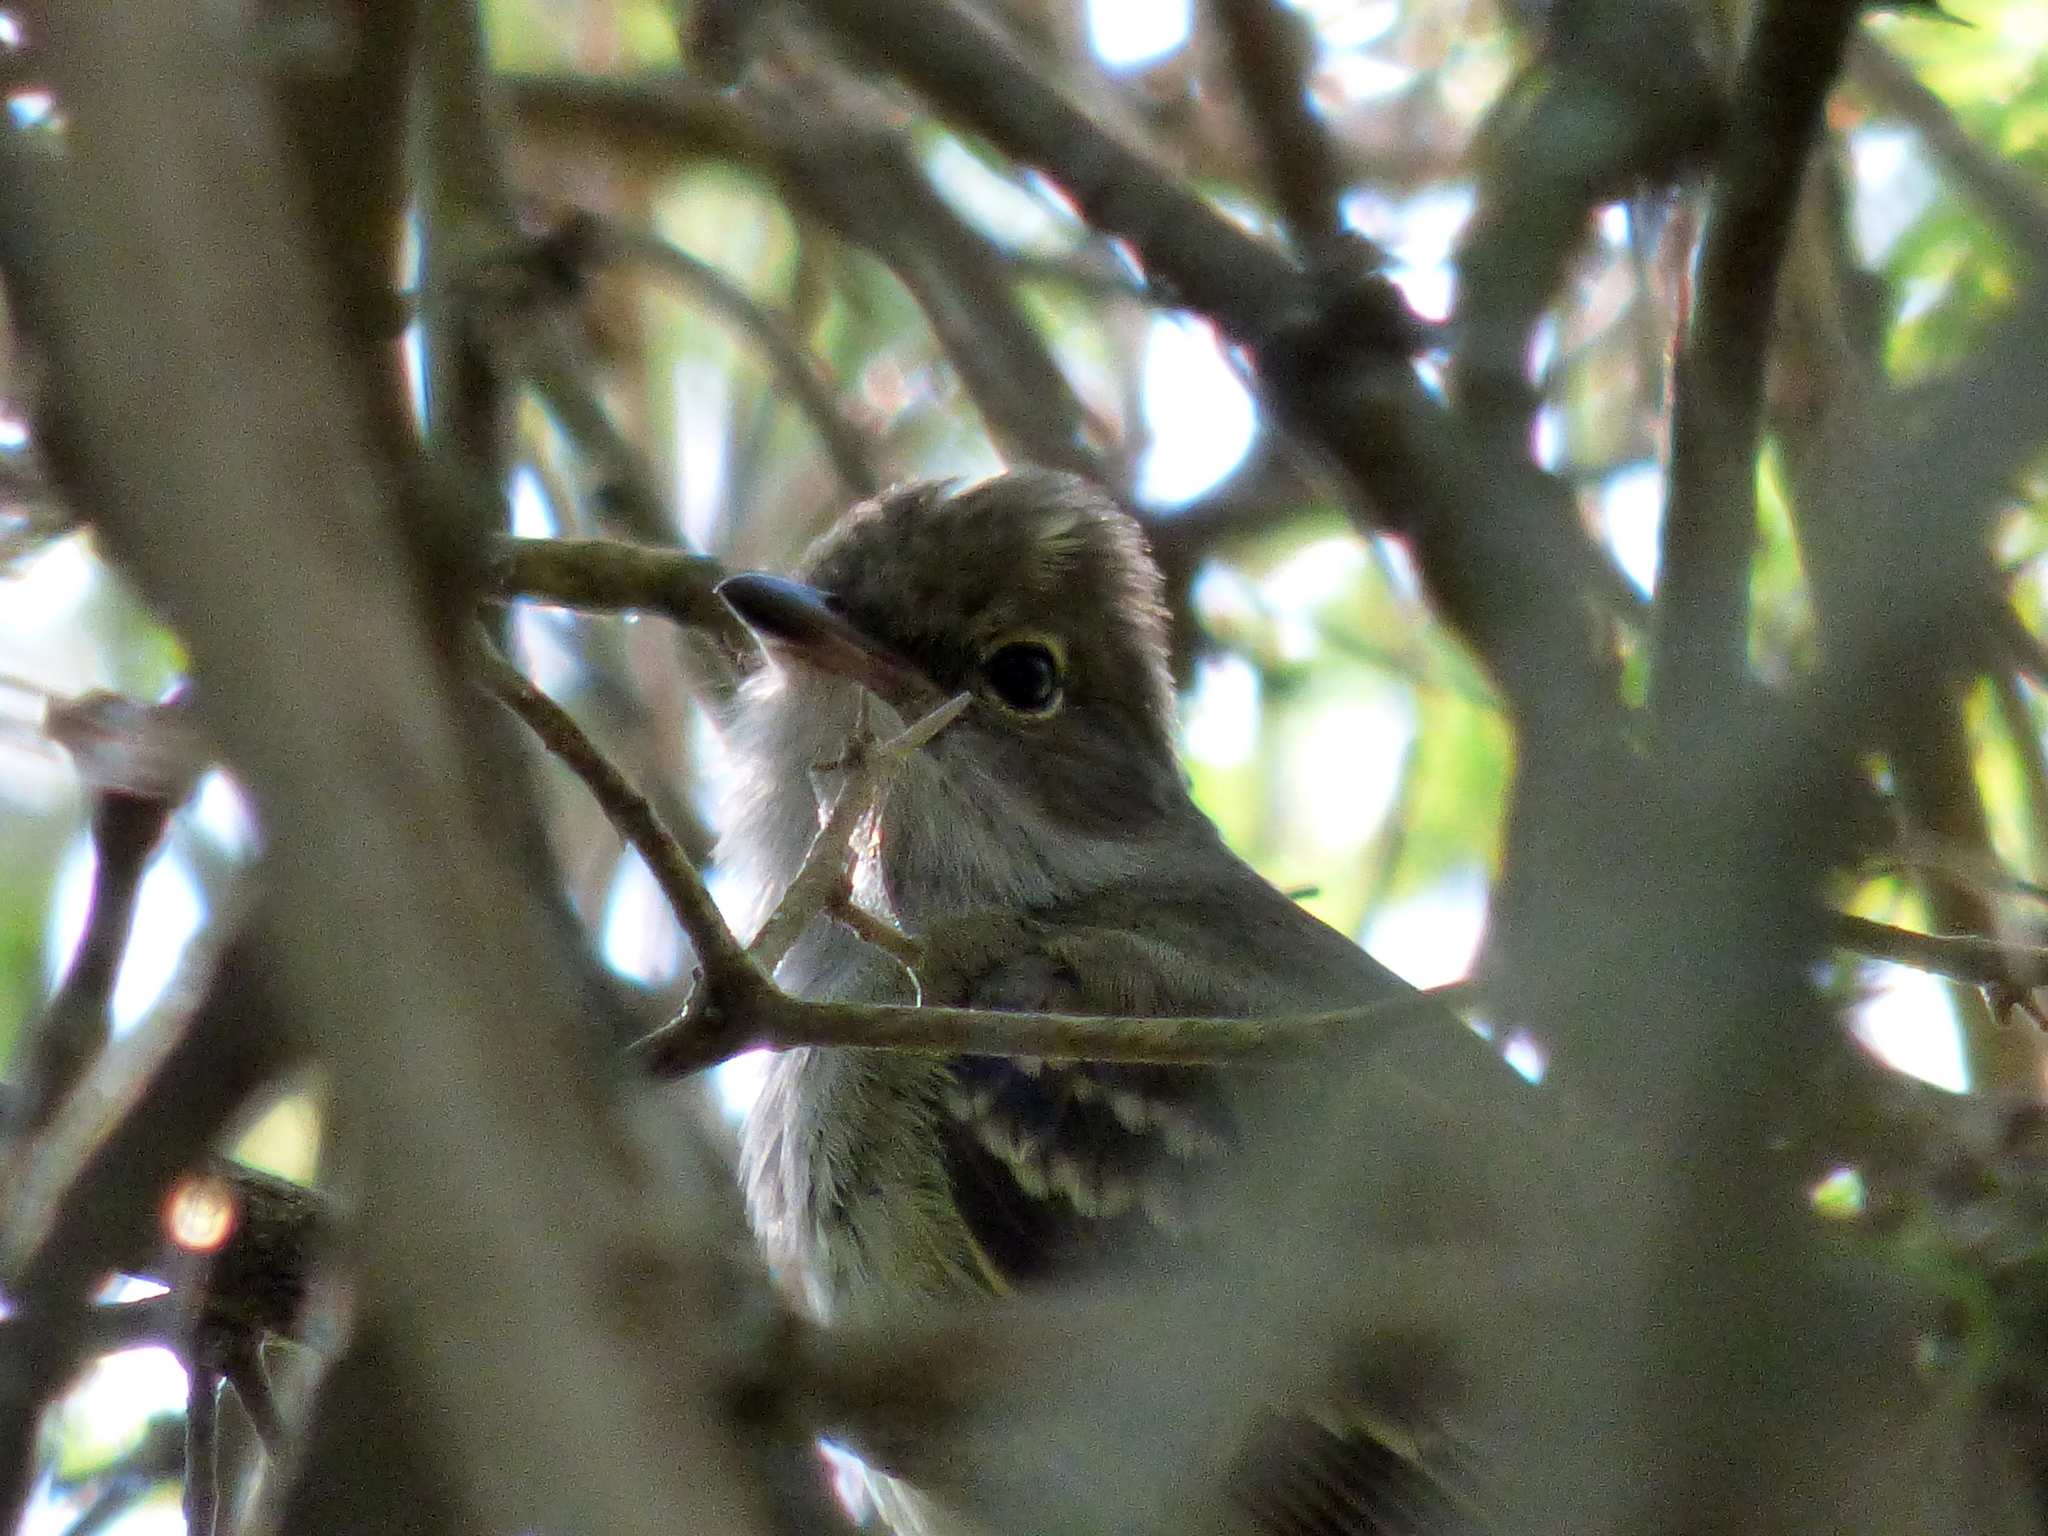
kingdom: Animalia
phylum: Chordata
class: Aves
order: Passeriformes
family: Tyrannidae
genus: Elaenia
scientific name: Elaenia spectabilis
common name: Large elaenia
